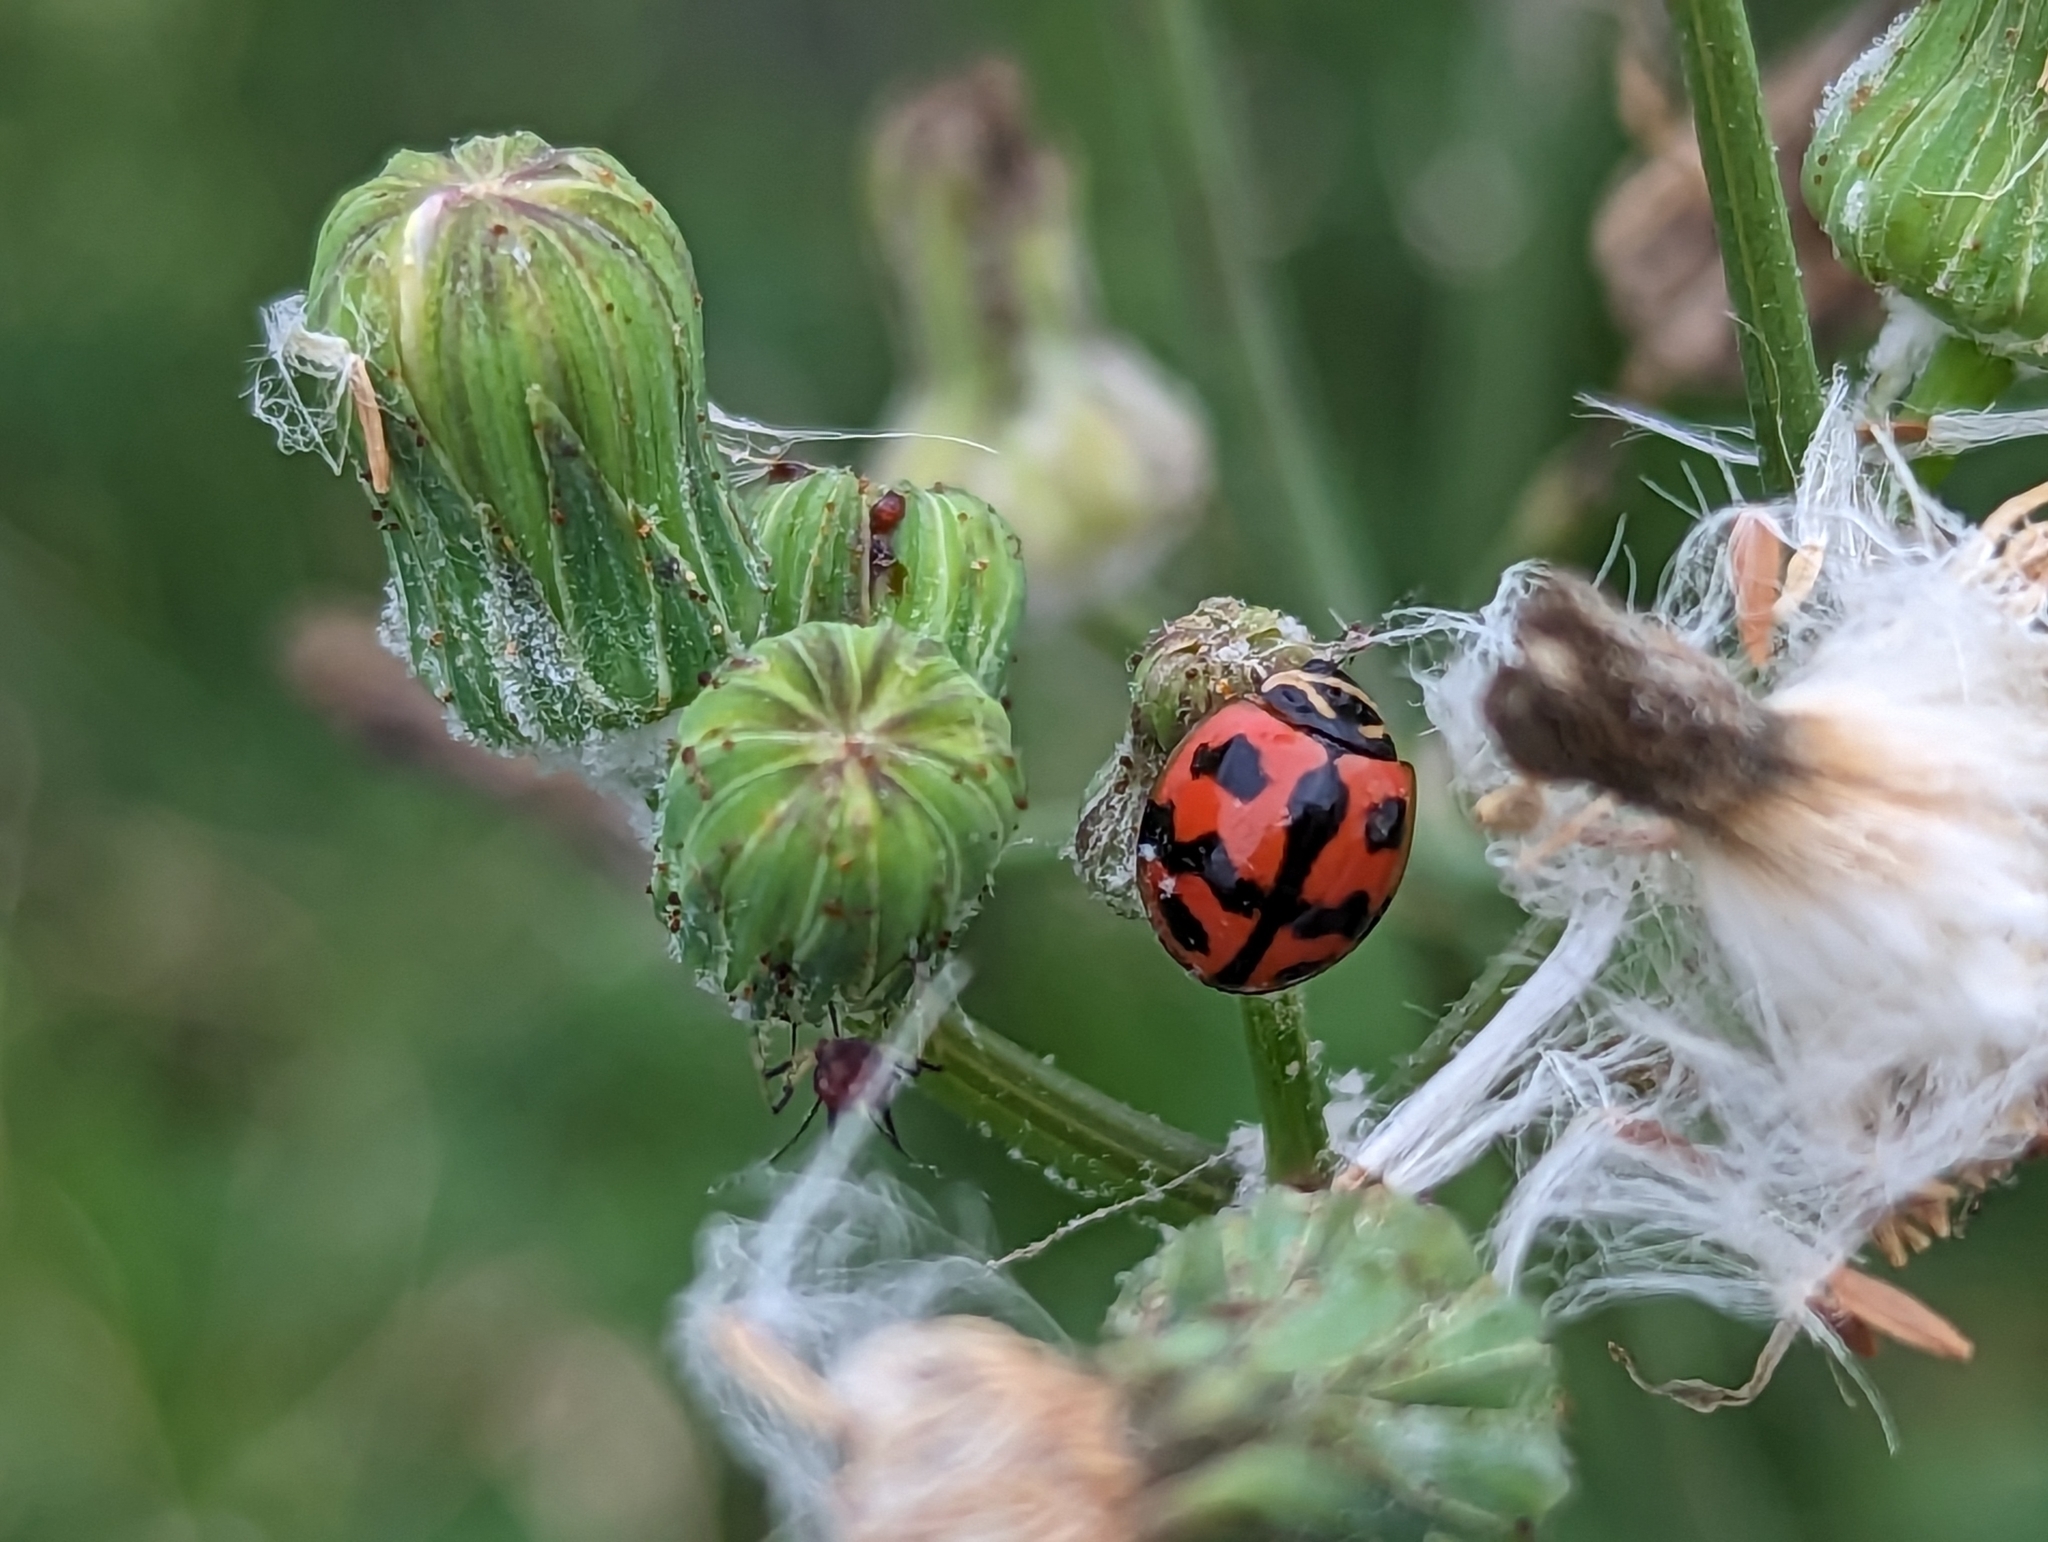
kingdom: Animalia
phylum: Arthropoda
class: Insecta
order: Coleoptera
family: Coccinellidae
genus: Cheilomenes
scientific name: Cheilomenes sexmaculata
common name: Ladybird beetle
